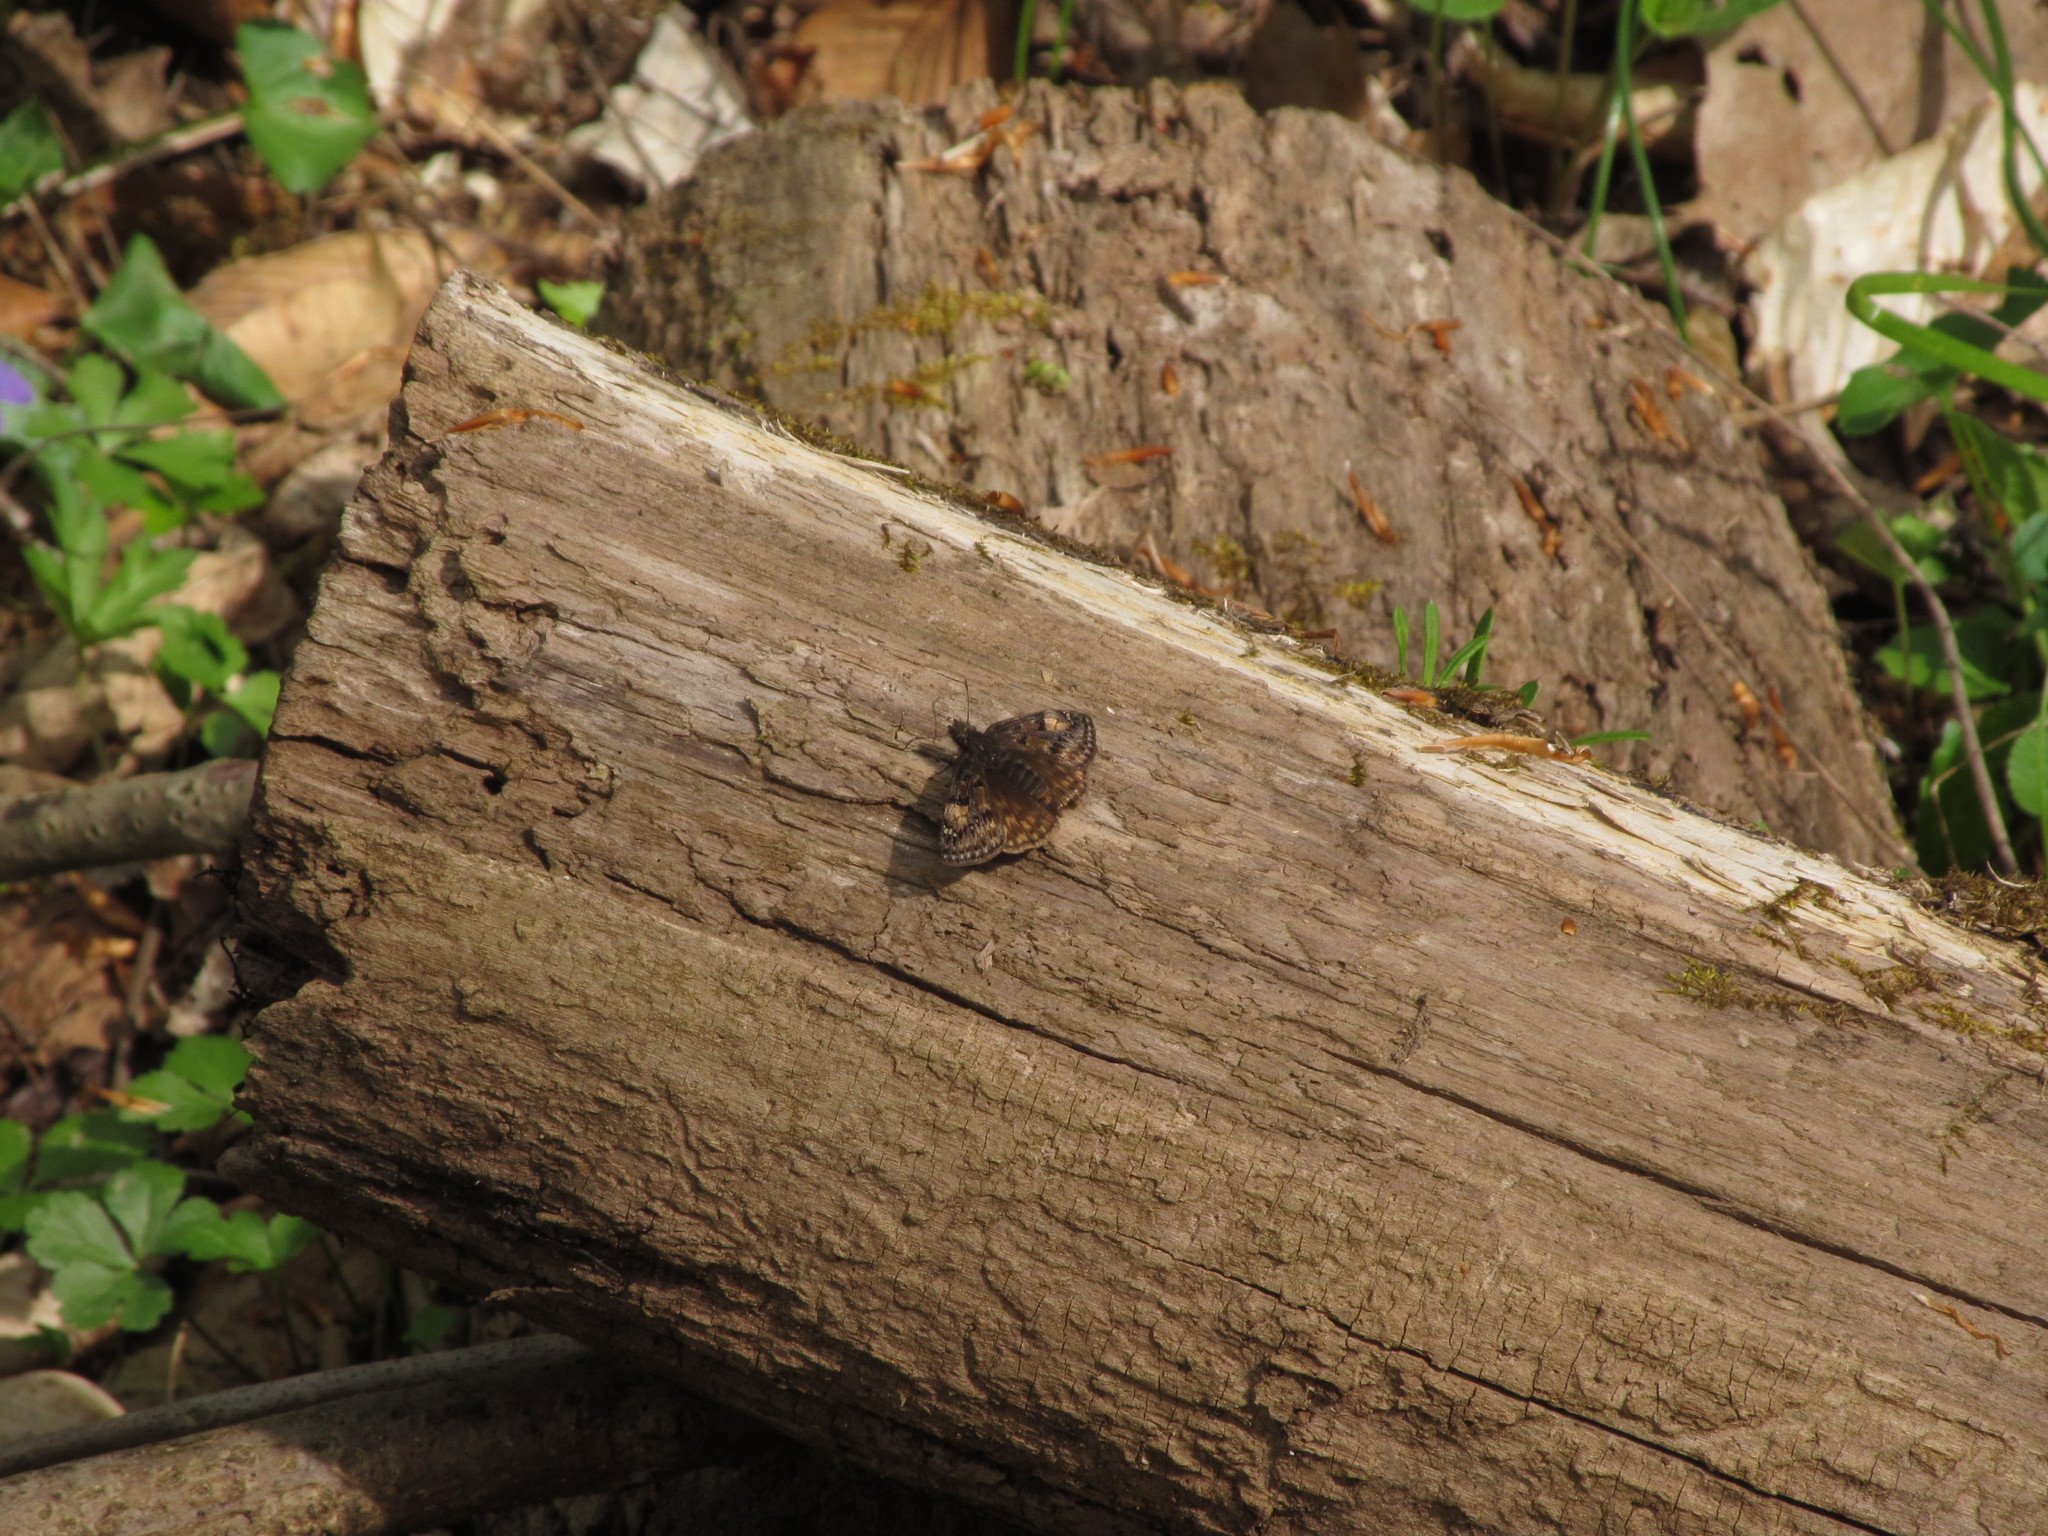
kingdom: Animalia
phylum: Arthropoda
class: Insecta
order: Lepidoptera
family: Hesperiidae
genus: Erynnis
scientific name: Erynnis juvenalis
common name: Juvenal's duskywing
